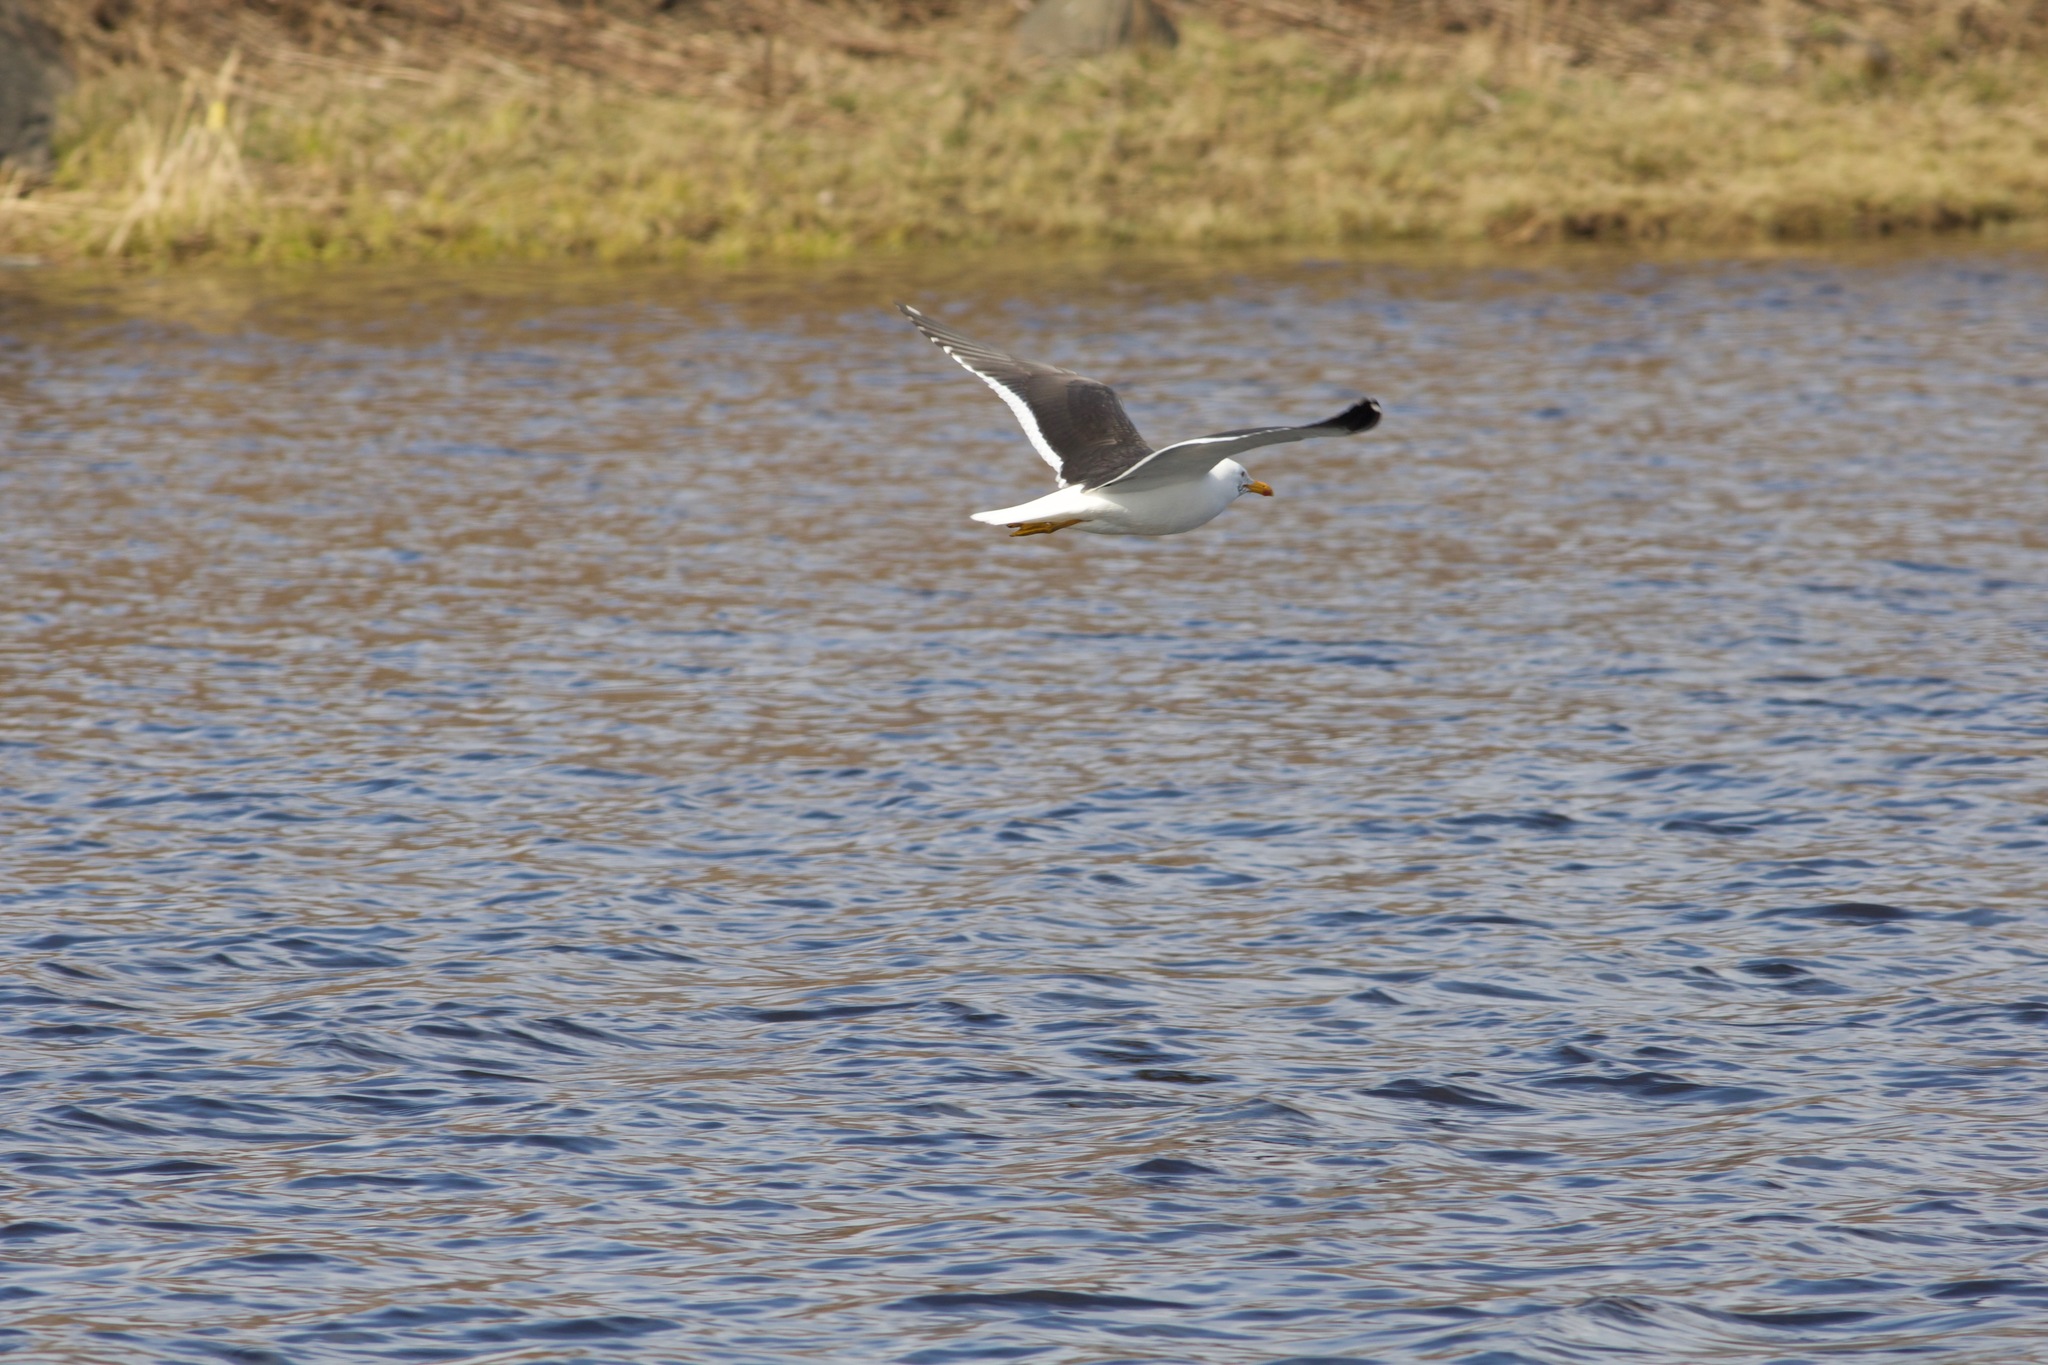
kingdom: Animalia
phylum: Chordata
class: Aves
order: Charadriiformes
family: Laridae
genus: Larus
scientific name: Larus fuscus
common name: Lesser black-backed gull
